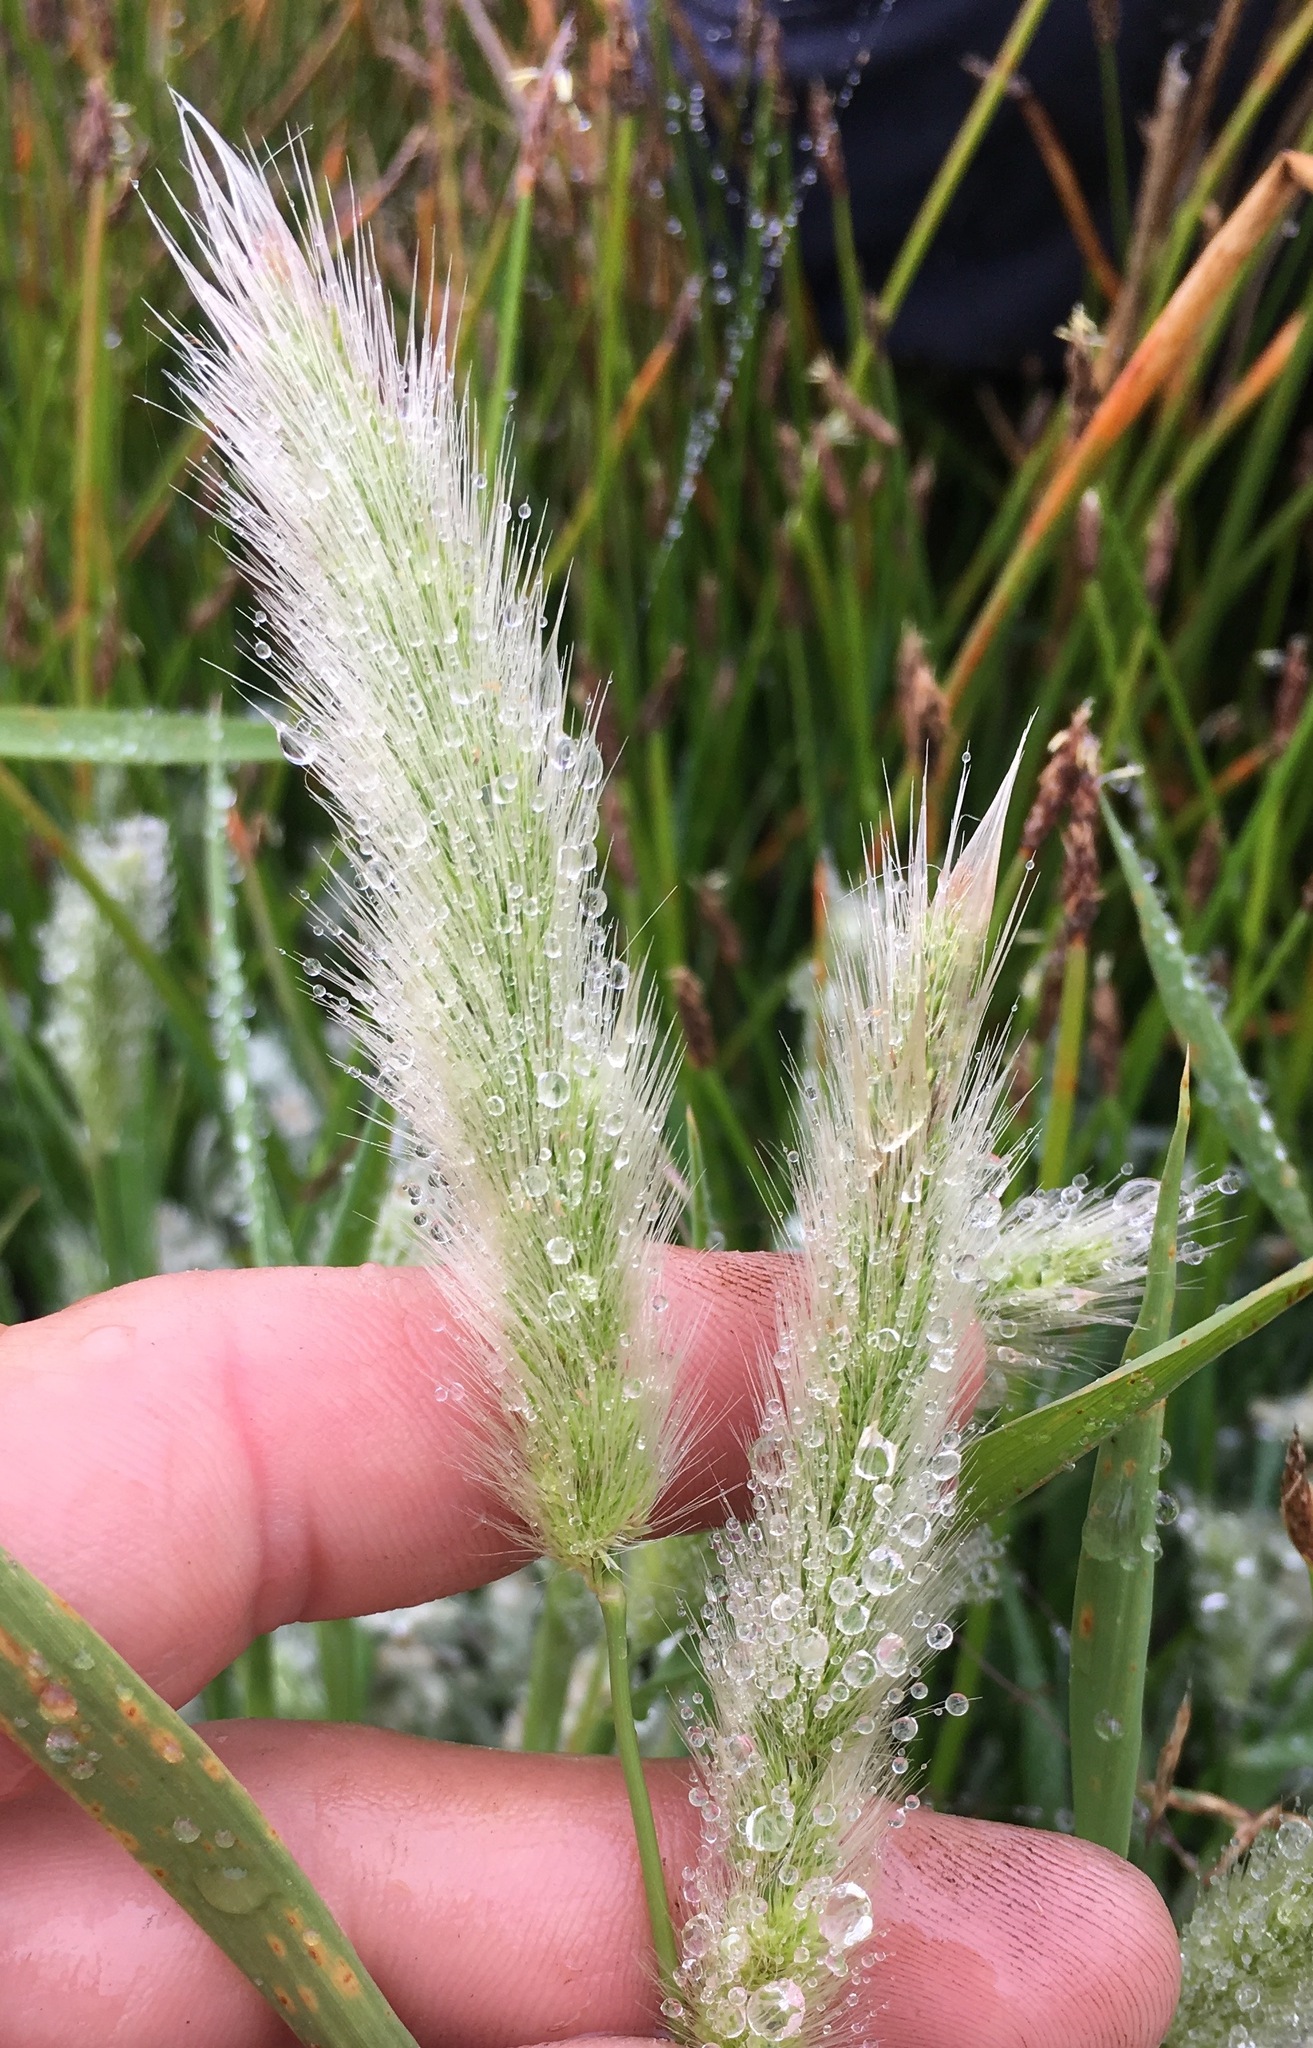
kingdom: Plantae
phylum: Tracheophyta
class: Liliopsida
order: Poales
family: Poaceae
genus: Polypogon
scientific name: Polypogon monspeliensis
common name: Annual rabbitsfoot grass
